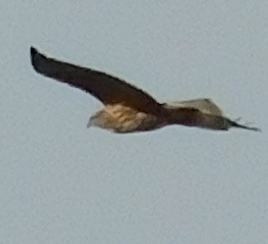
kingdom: Animalia
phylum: Chordata
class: Aves
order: Accipitriformes
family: Accipitridae
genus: Buteo
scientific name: Buteo buteo
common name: Common buzzard
